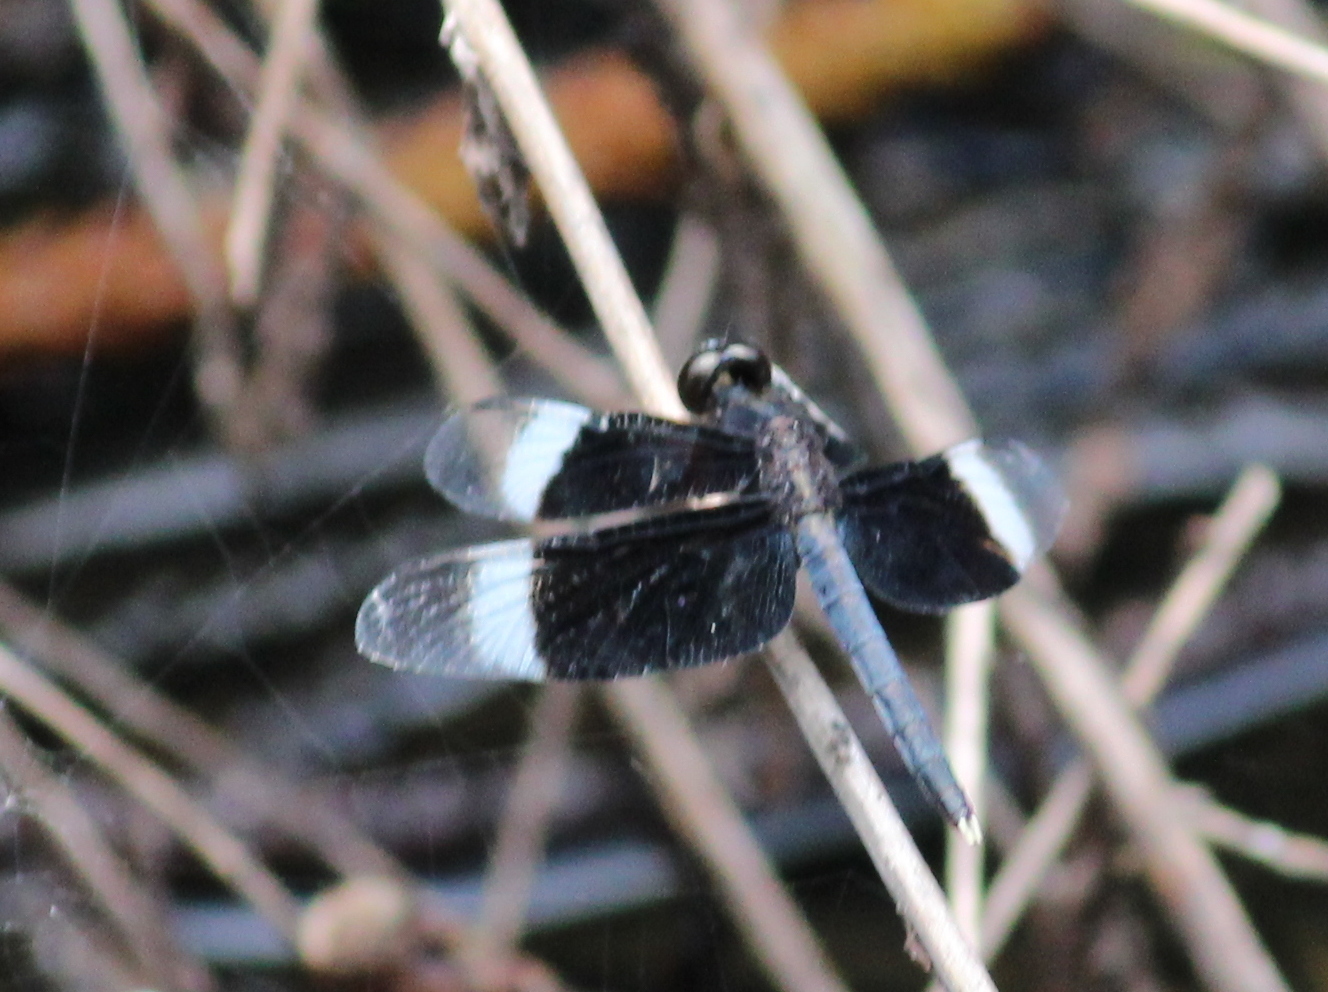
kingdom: Animalia
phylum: Arthropoda
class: Insecta
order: Odonata
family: Libellulidae
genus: Neurothemis
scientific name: Neurothemis tullia
